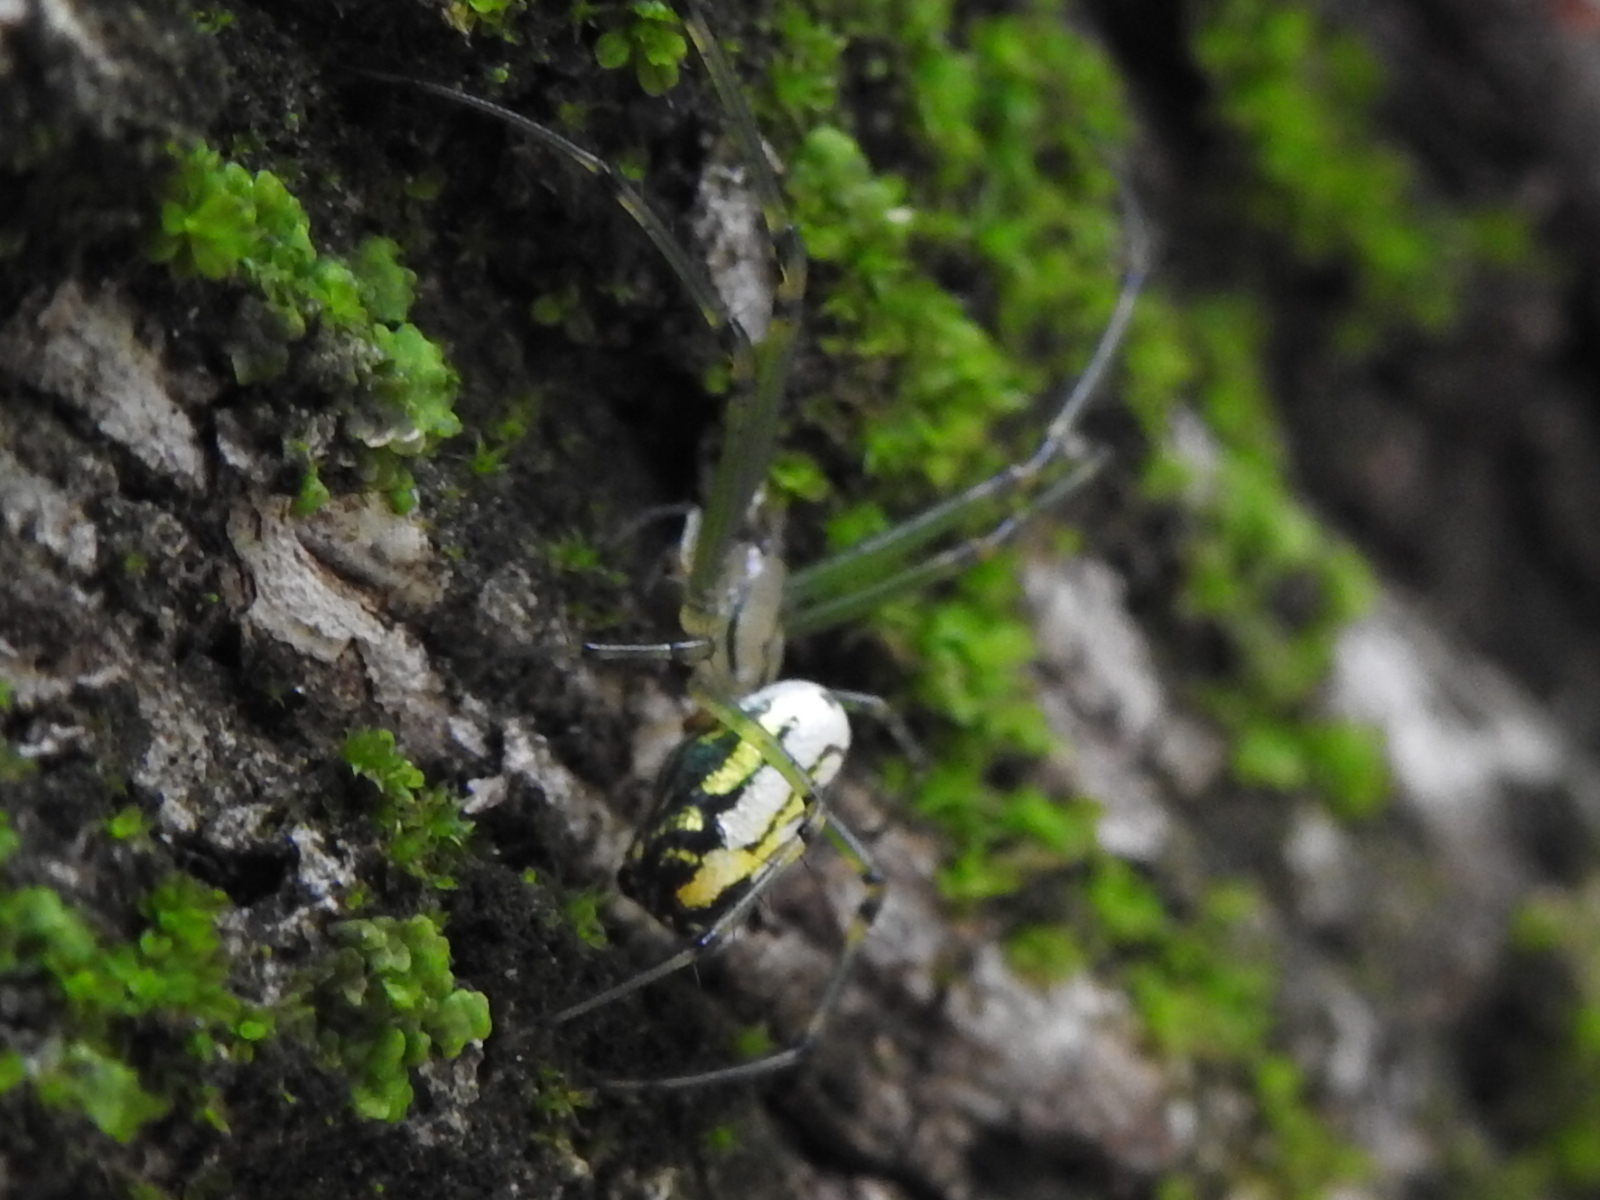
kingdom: Animalia
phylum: Arthropoda
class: Arachnida
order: Araneae
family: Tetragnathidae
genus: Leucauge
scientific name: Leucauge venusta
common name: Longjawed orb weavers
